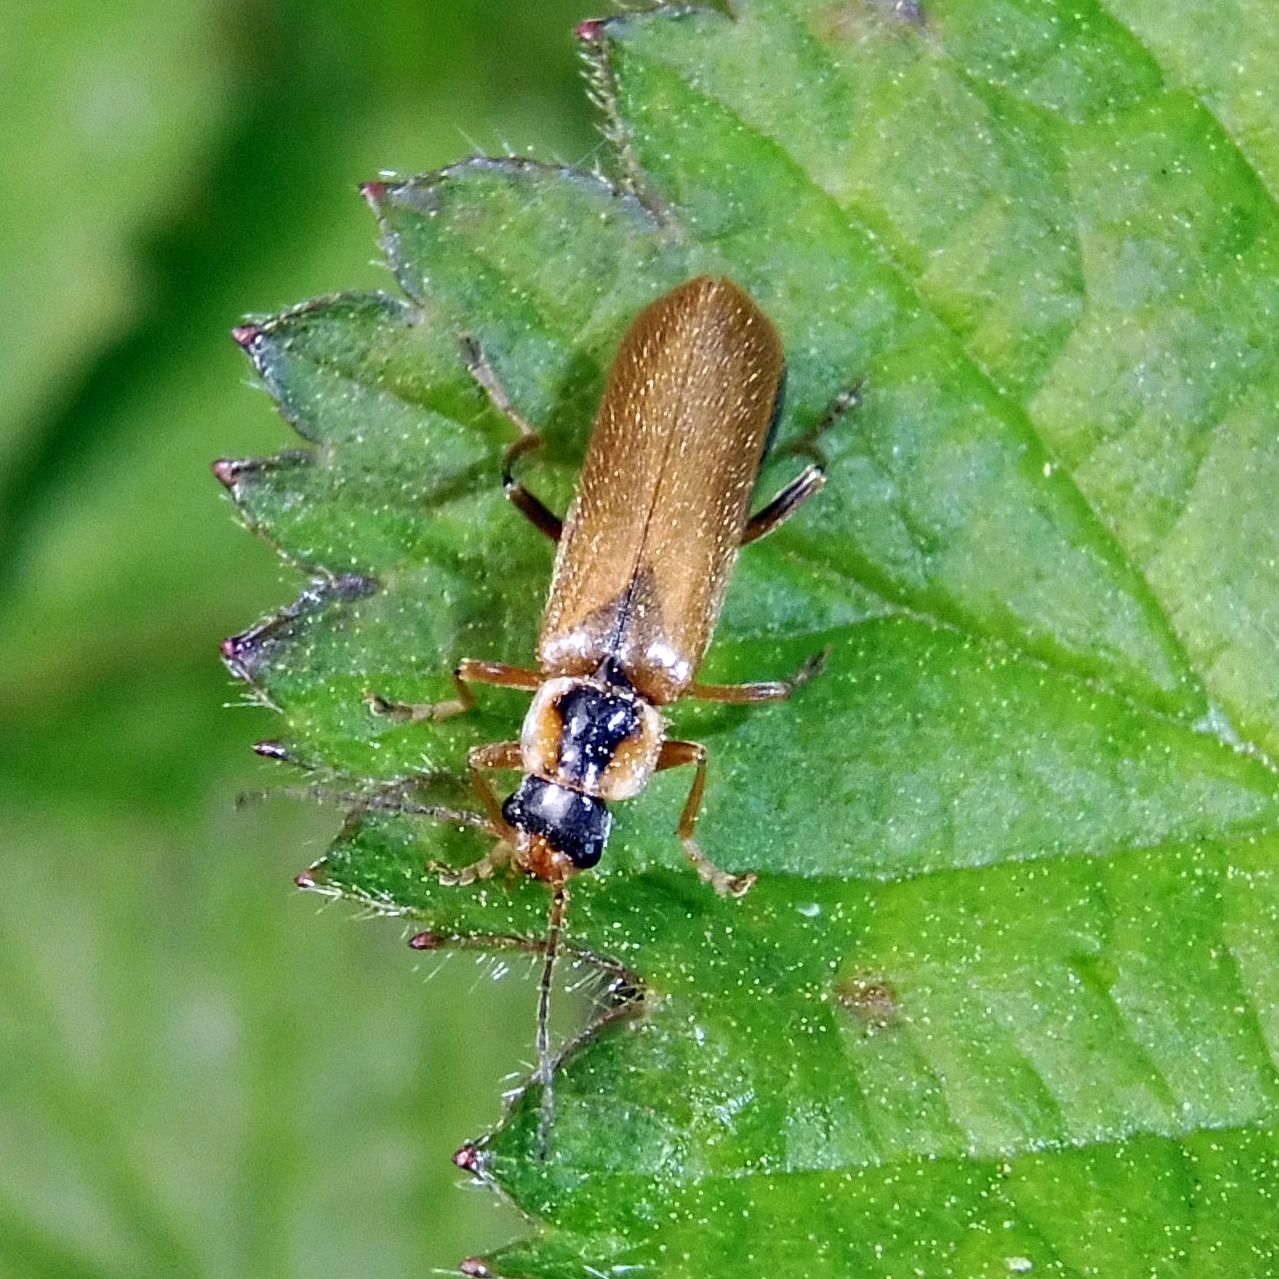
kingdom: Animalia
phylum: Arthropoda
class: Insecta
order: Coleoptera
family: Cantharidae
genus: Cantharis
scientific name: Cantharis decipiens
